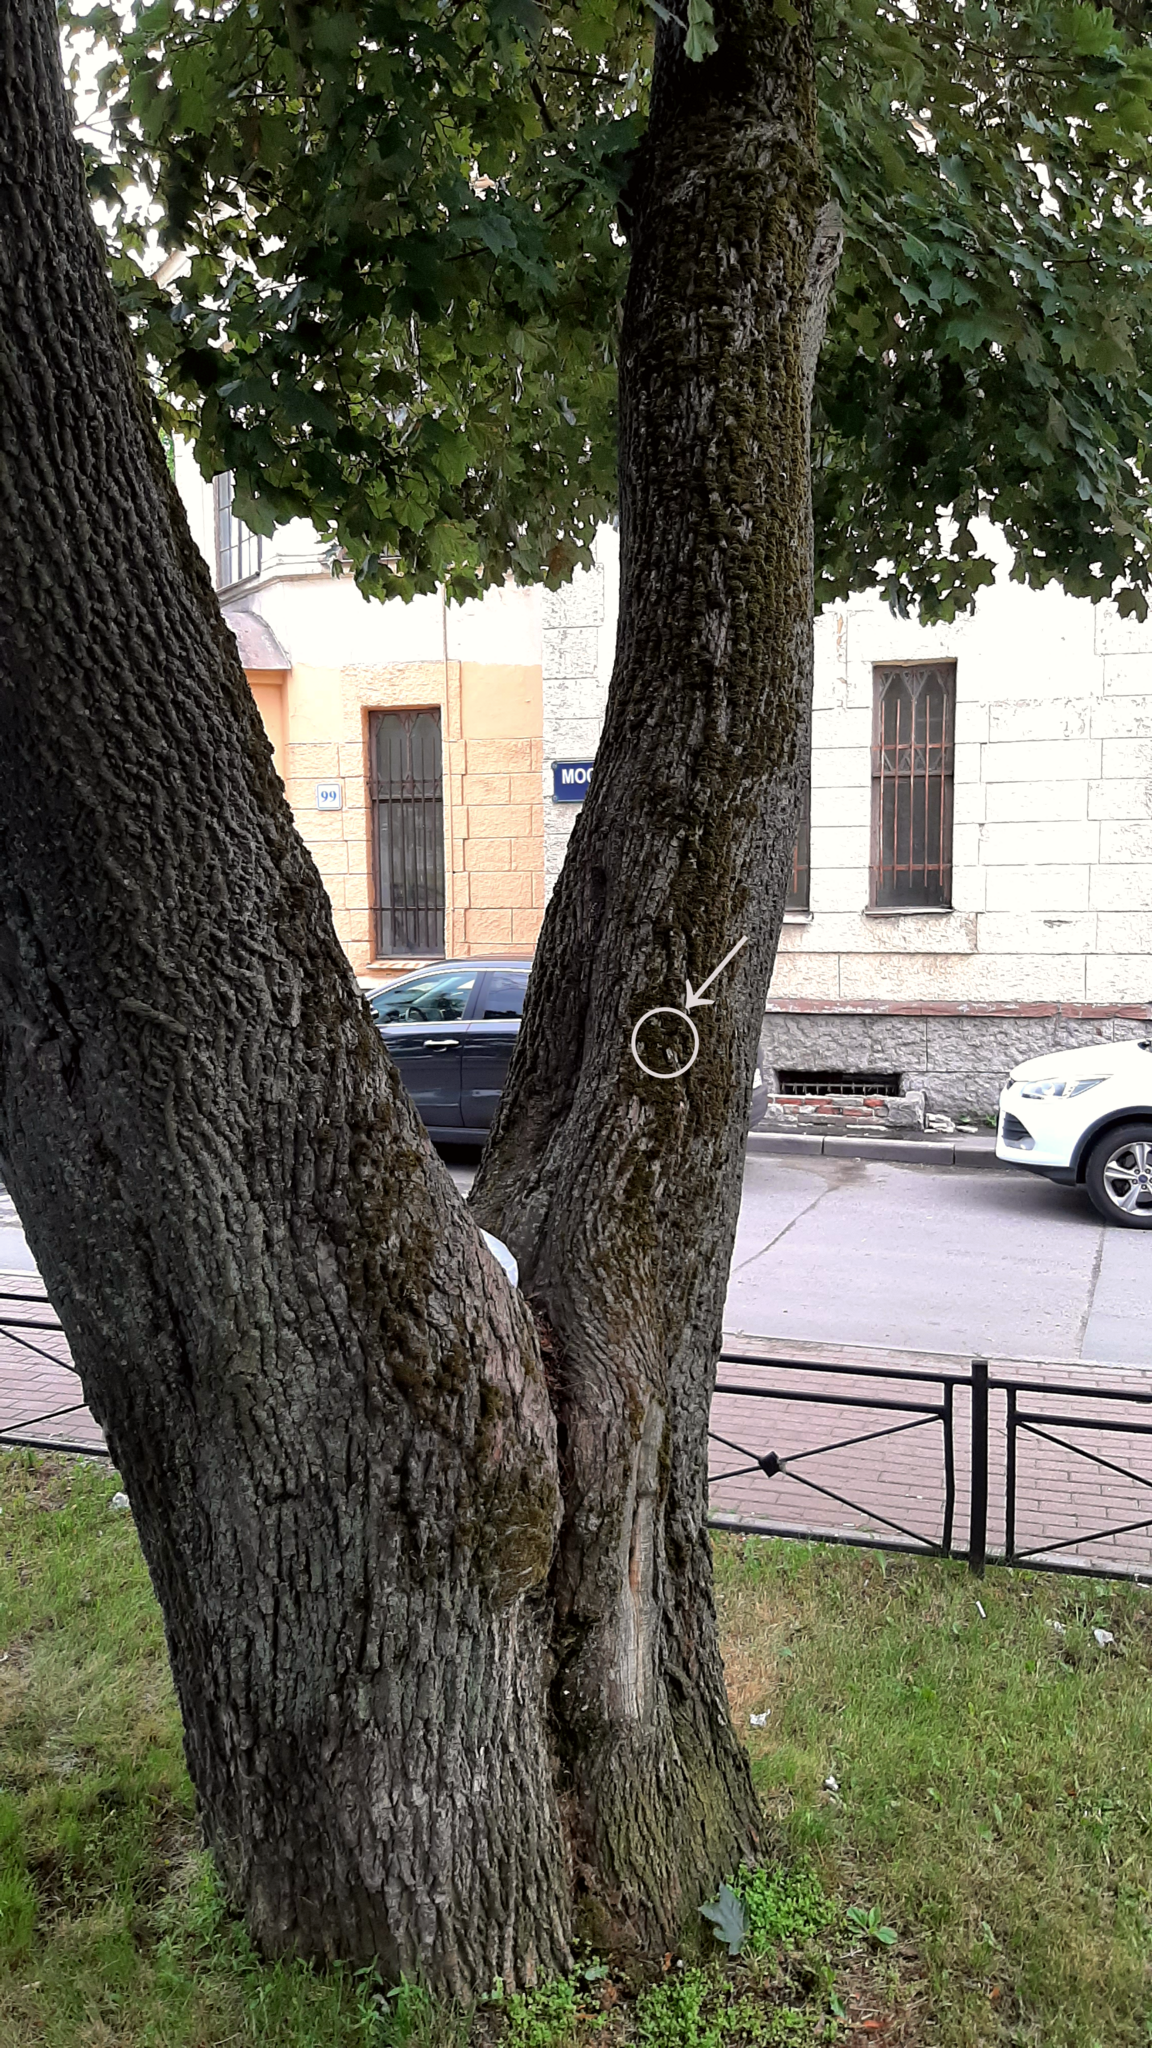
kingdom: Chromista
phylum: Ciliophora
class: Colpodea
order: Colpodida
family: Colpodidae
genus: Colpoda
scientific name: Colpoda cucullus
